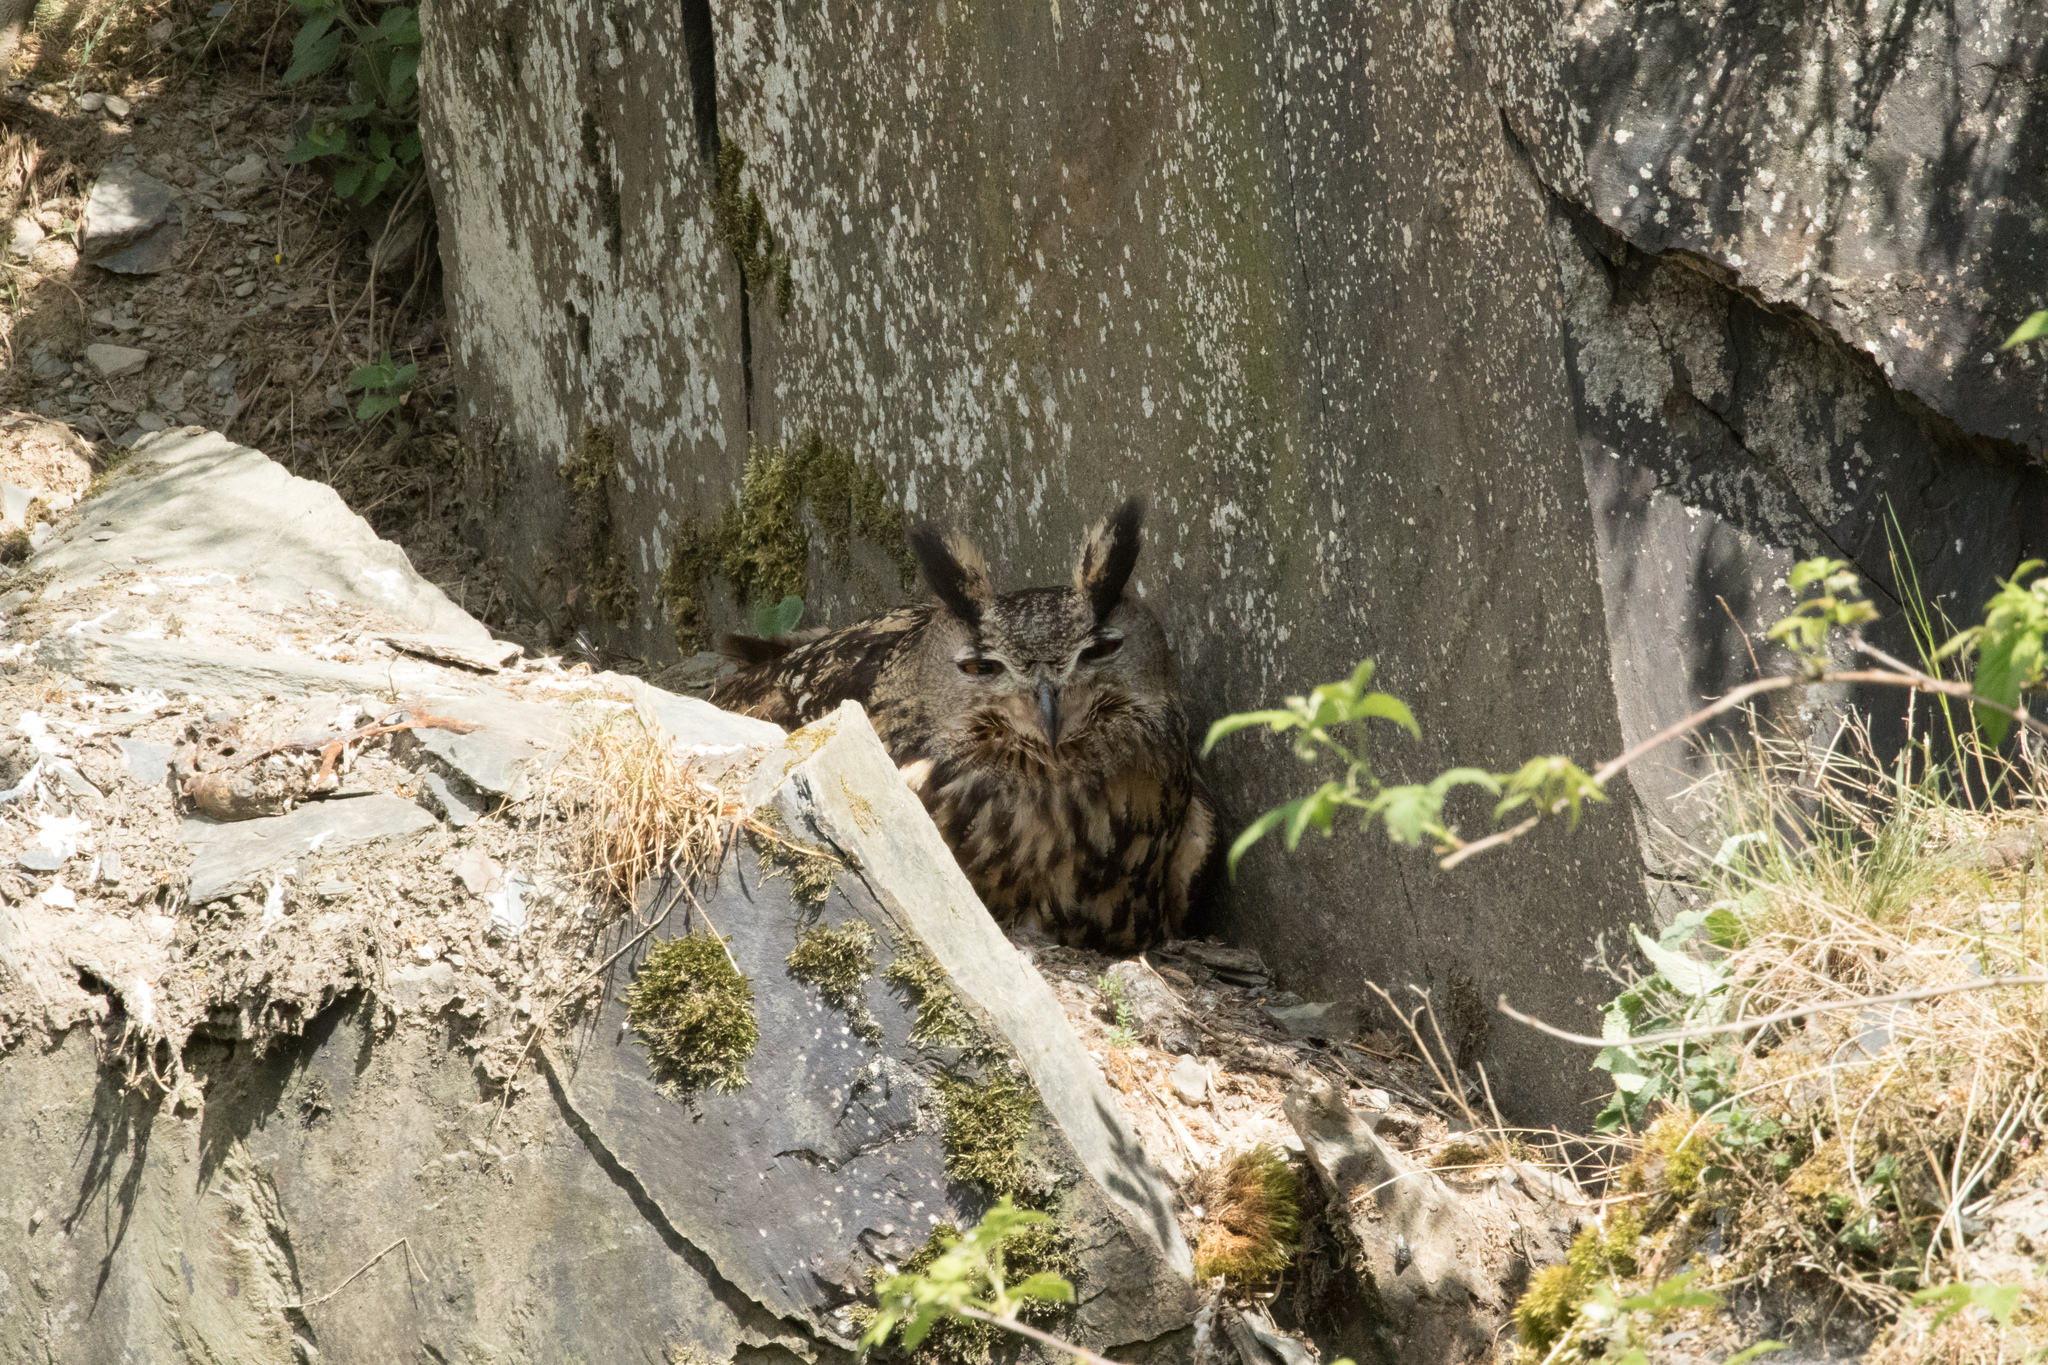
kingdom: Animalia
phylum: Chordata
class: Aves
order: Strigiformes
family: Strigidae
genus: Bubo
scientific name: Bubo bubo
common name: Eurasian eagle-owl
